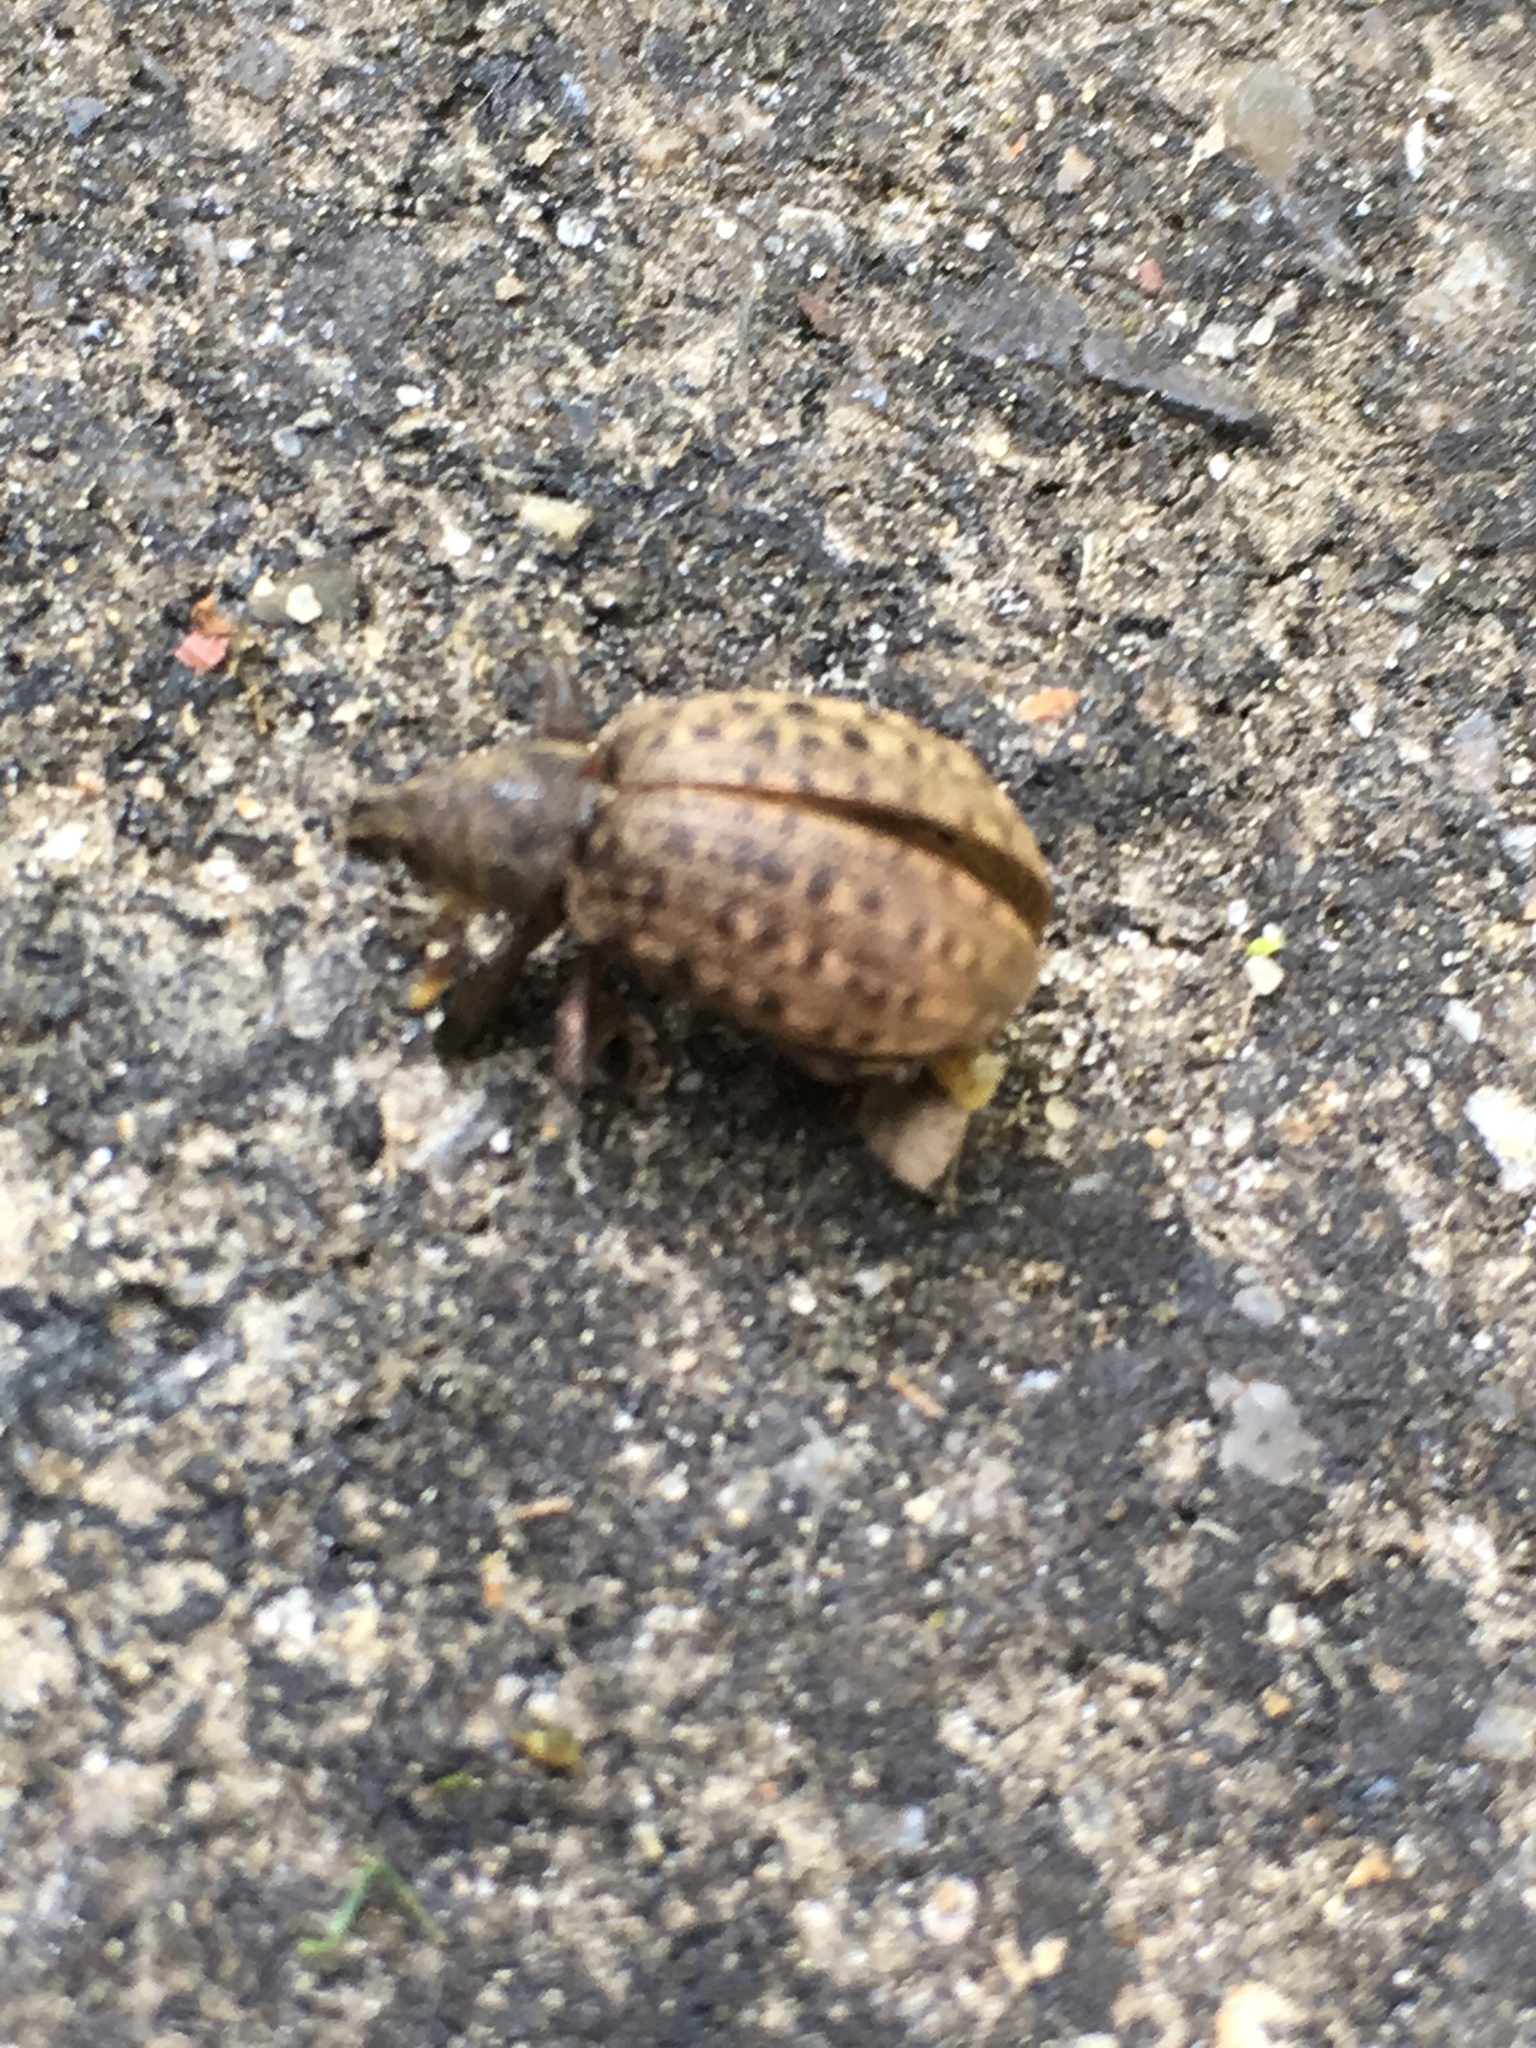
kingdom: Animalia
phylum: Arthropoda
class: Insecta
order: Coleoptera
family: Curculionidae
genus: Liophloeus
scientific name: Liophloeus tessulatus
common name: Weevil
